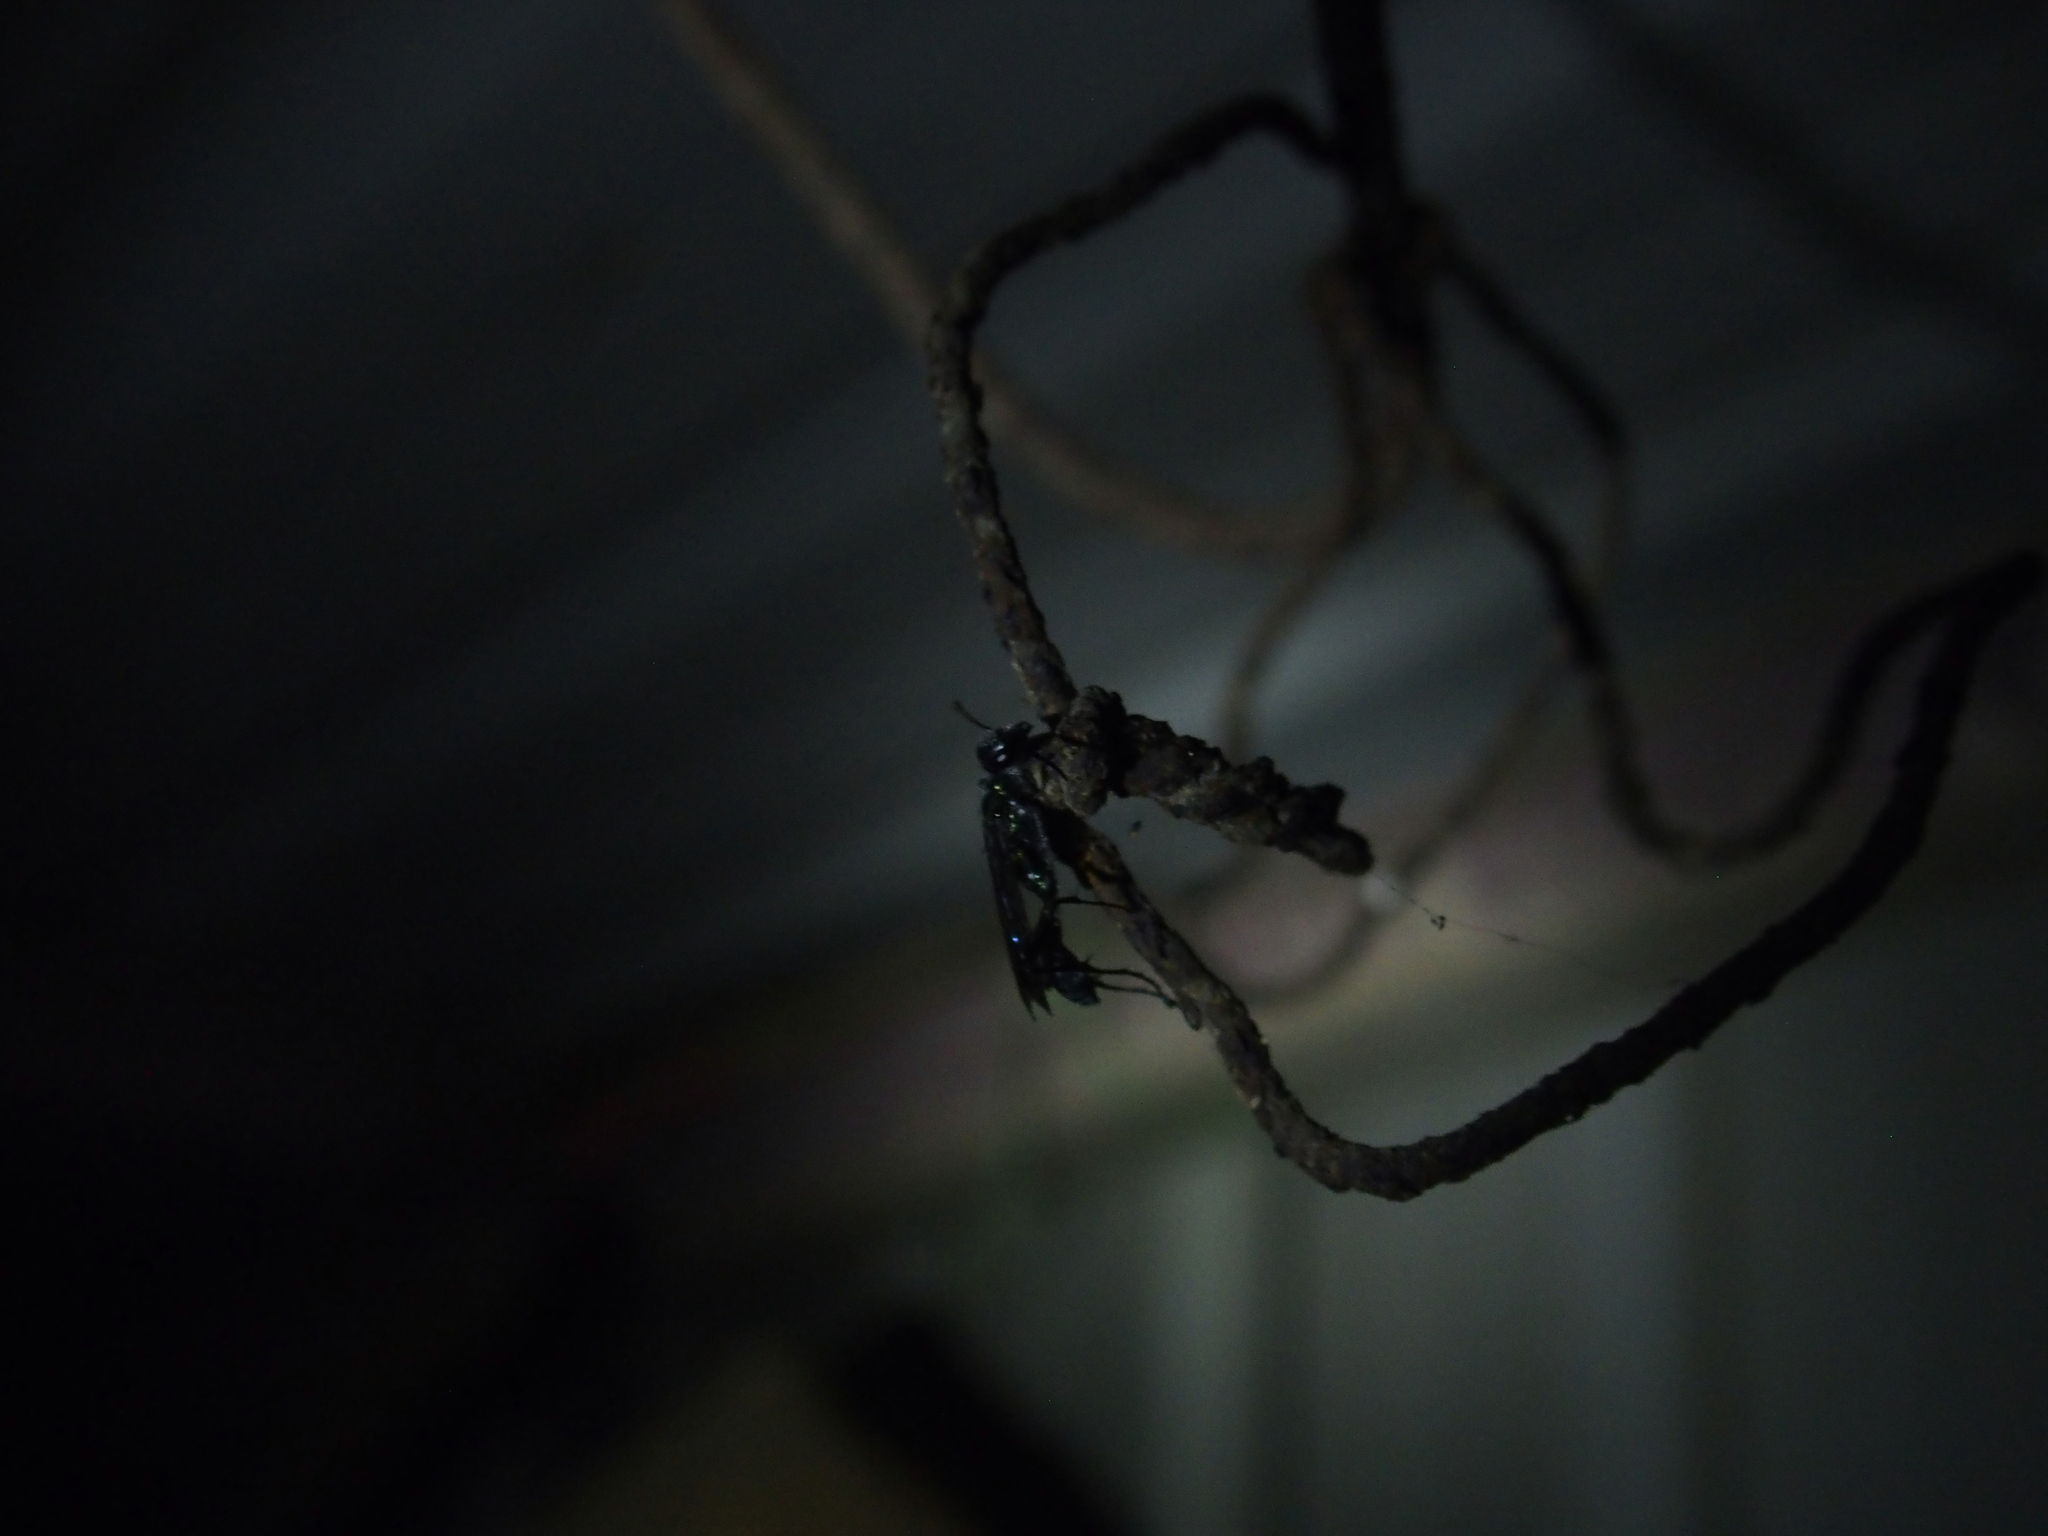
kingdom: Animalia
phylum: Arthropoda
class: Insecta
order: Hymenoptera
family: Sphecidae
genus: Chalybion
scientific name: Chalybion japonicum
